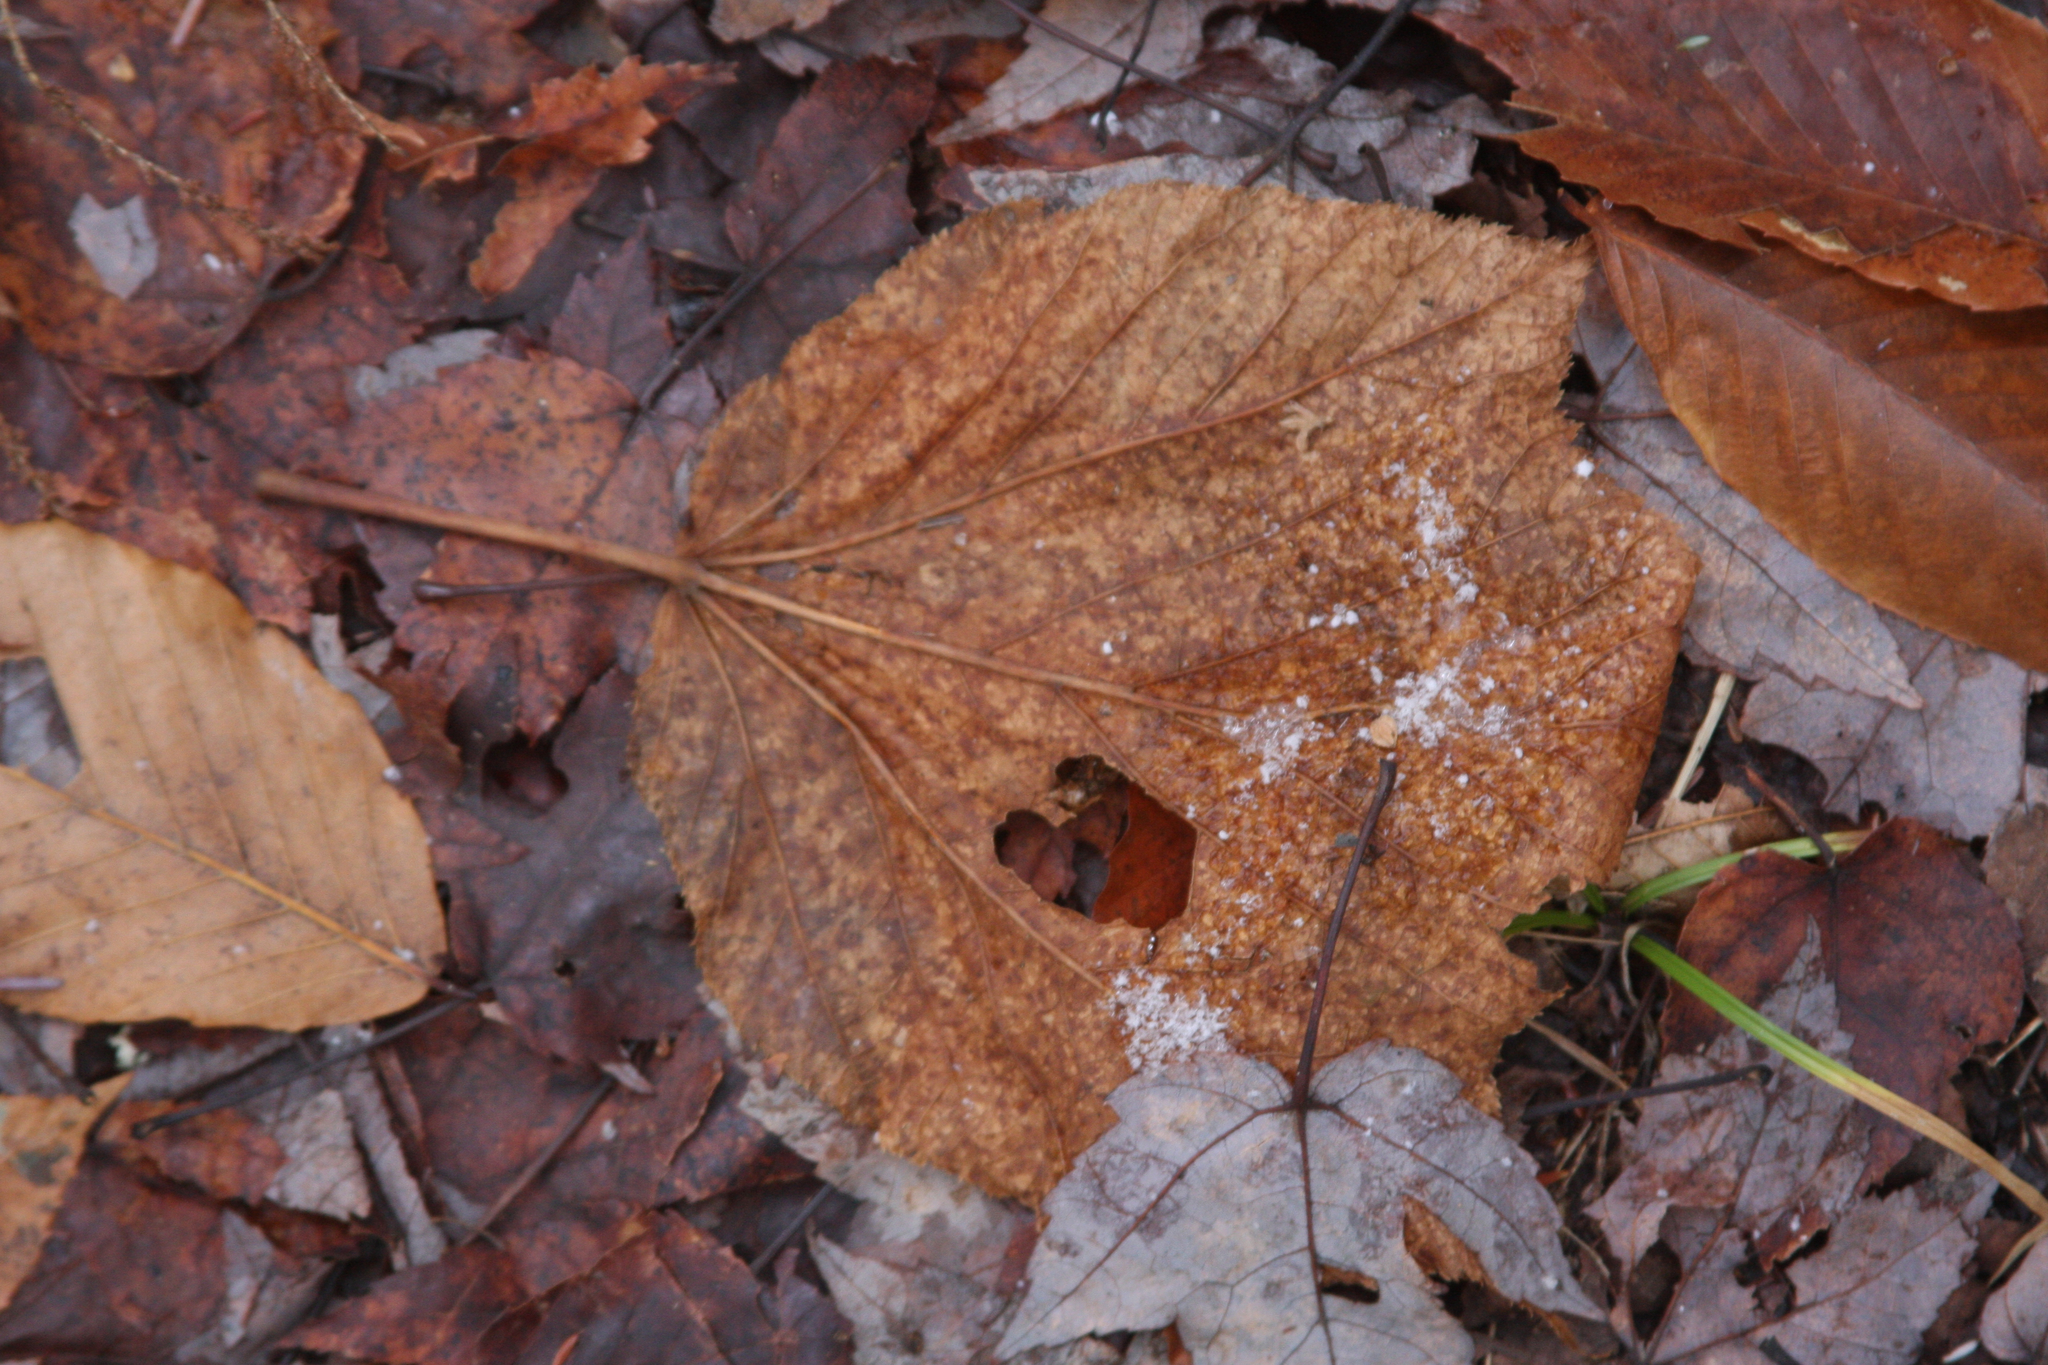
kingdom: Plantae
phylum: Tracheophyta
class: Magnoliopsida
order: Sapindales
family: Sapindaceae
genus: Acer
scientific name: Acer pensylvanicum
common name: Moosewood
